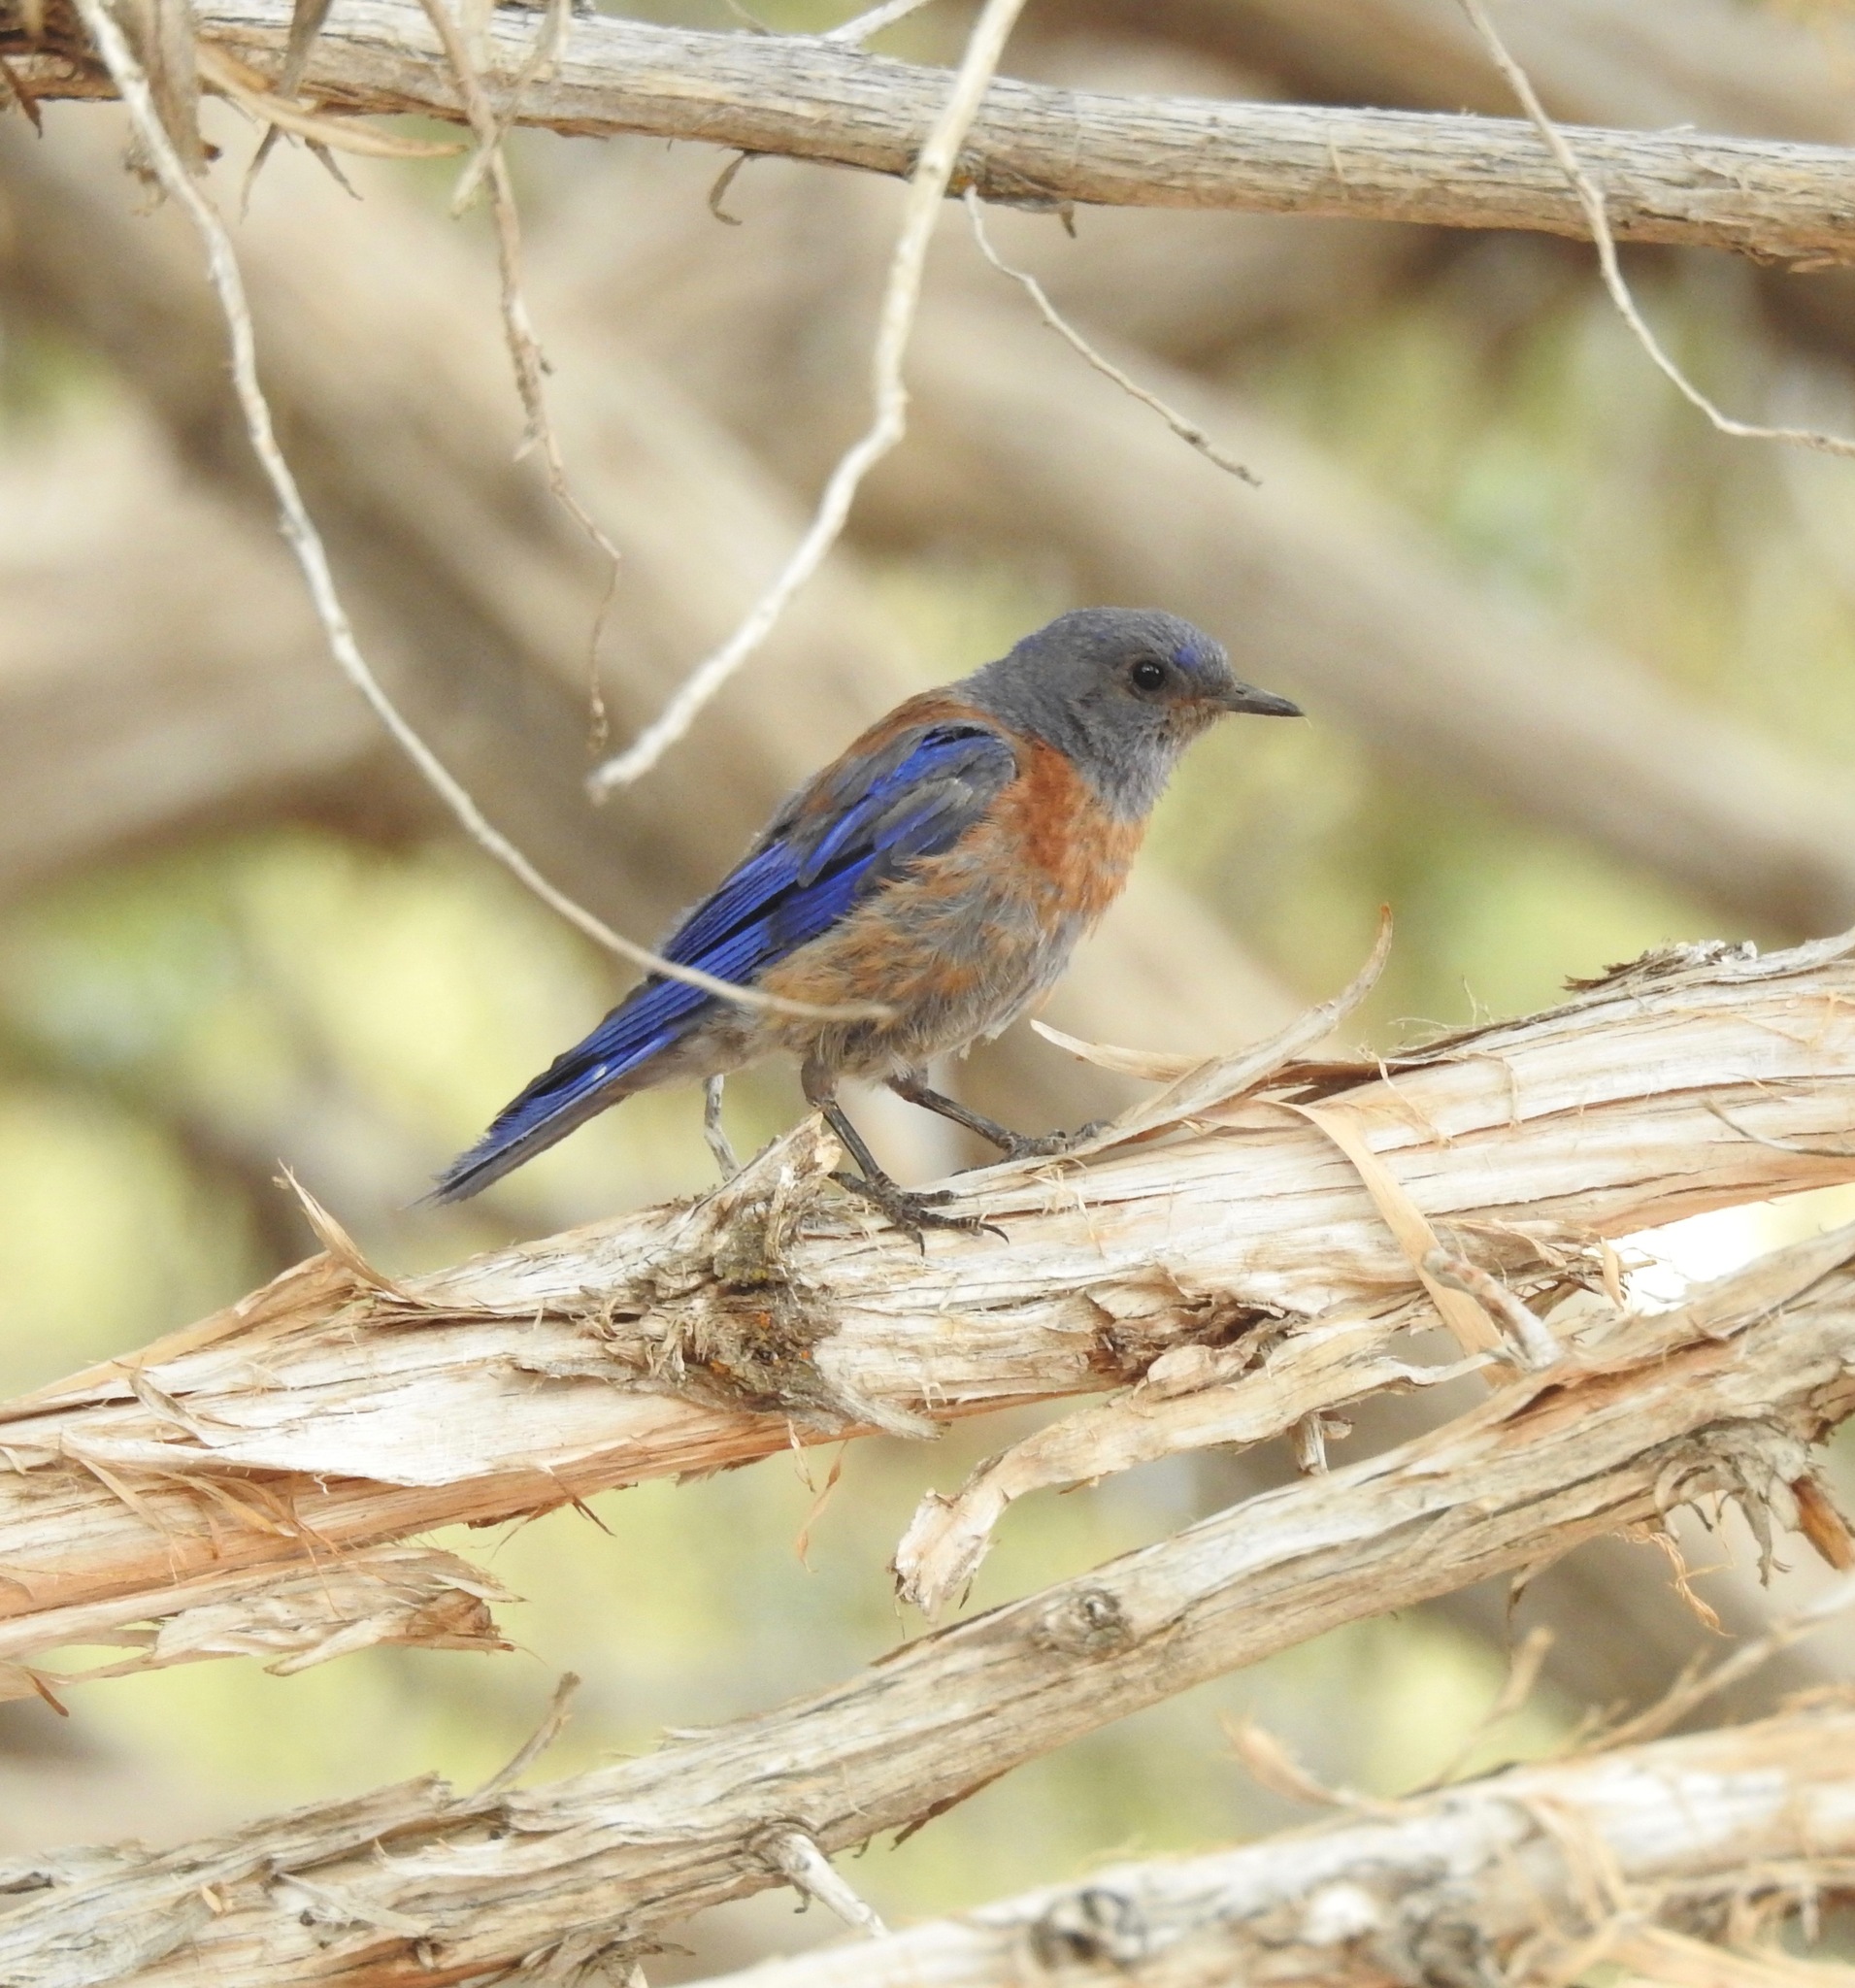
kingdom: Animalia
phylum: Chordata
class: Aves
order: Passeriformes
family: Turdidae
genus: Sialia
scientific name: Sialia mexicana
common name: Western bluebird
